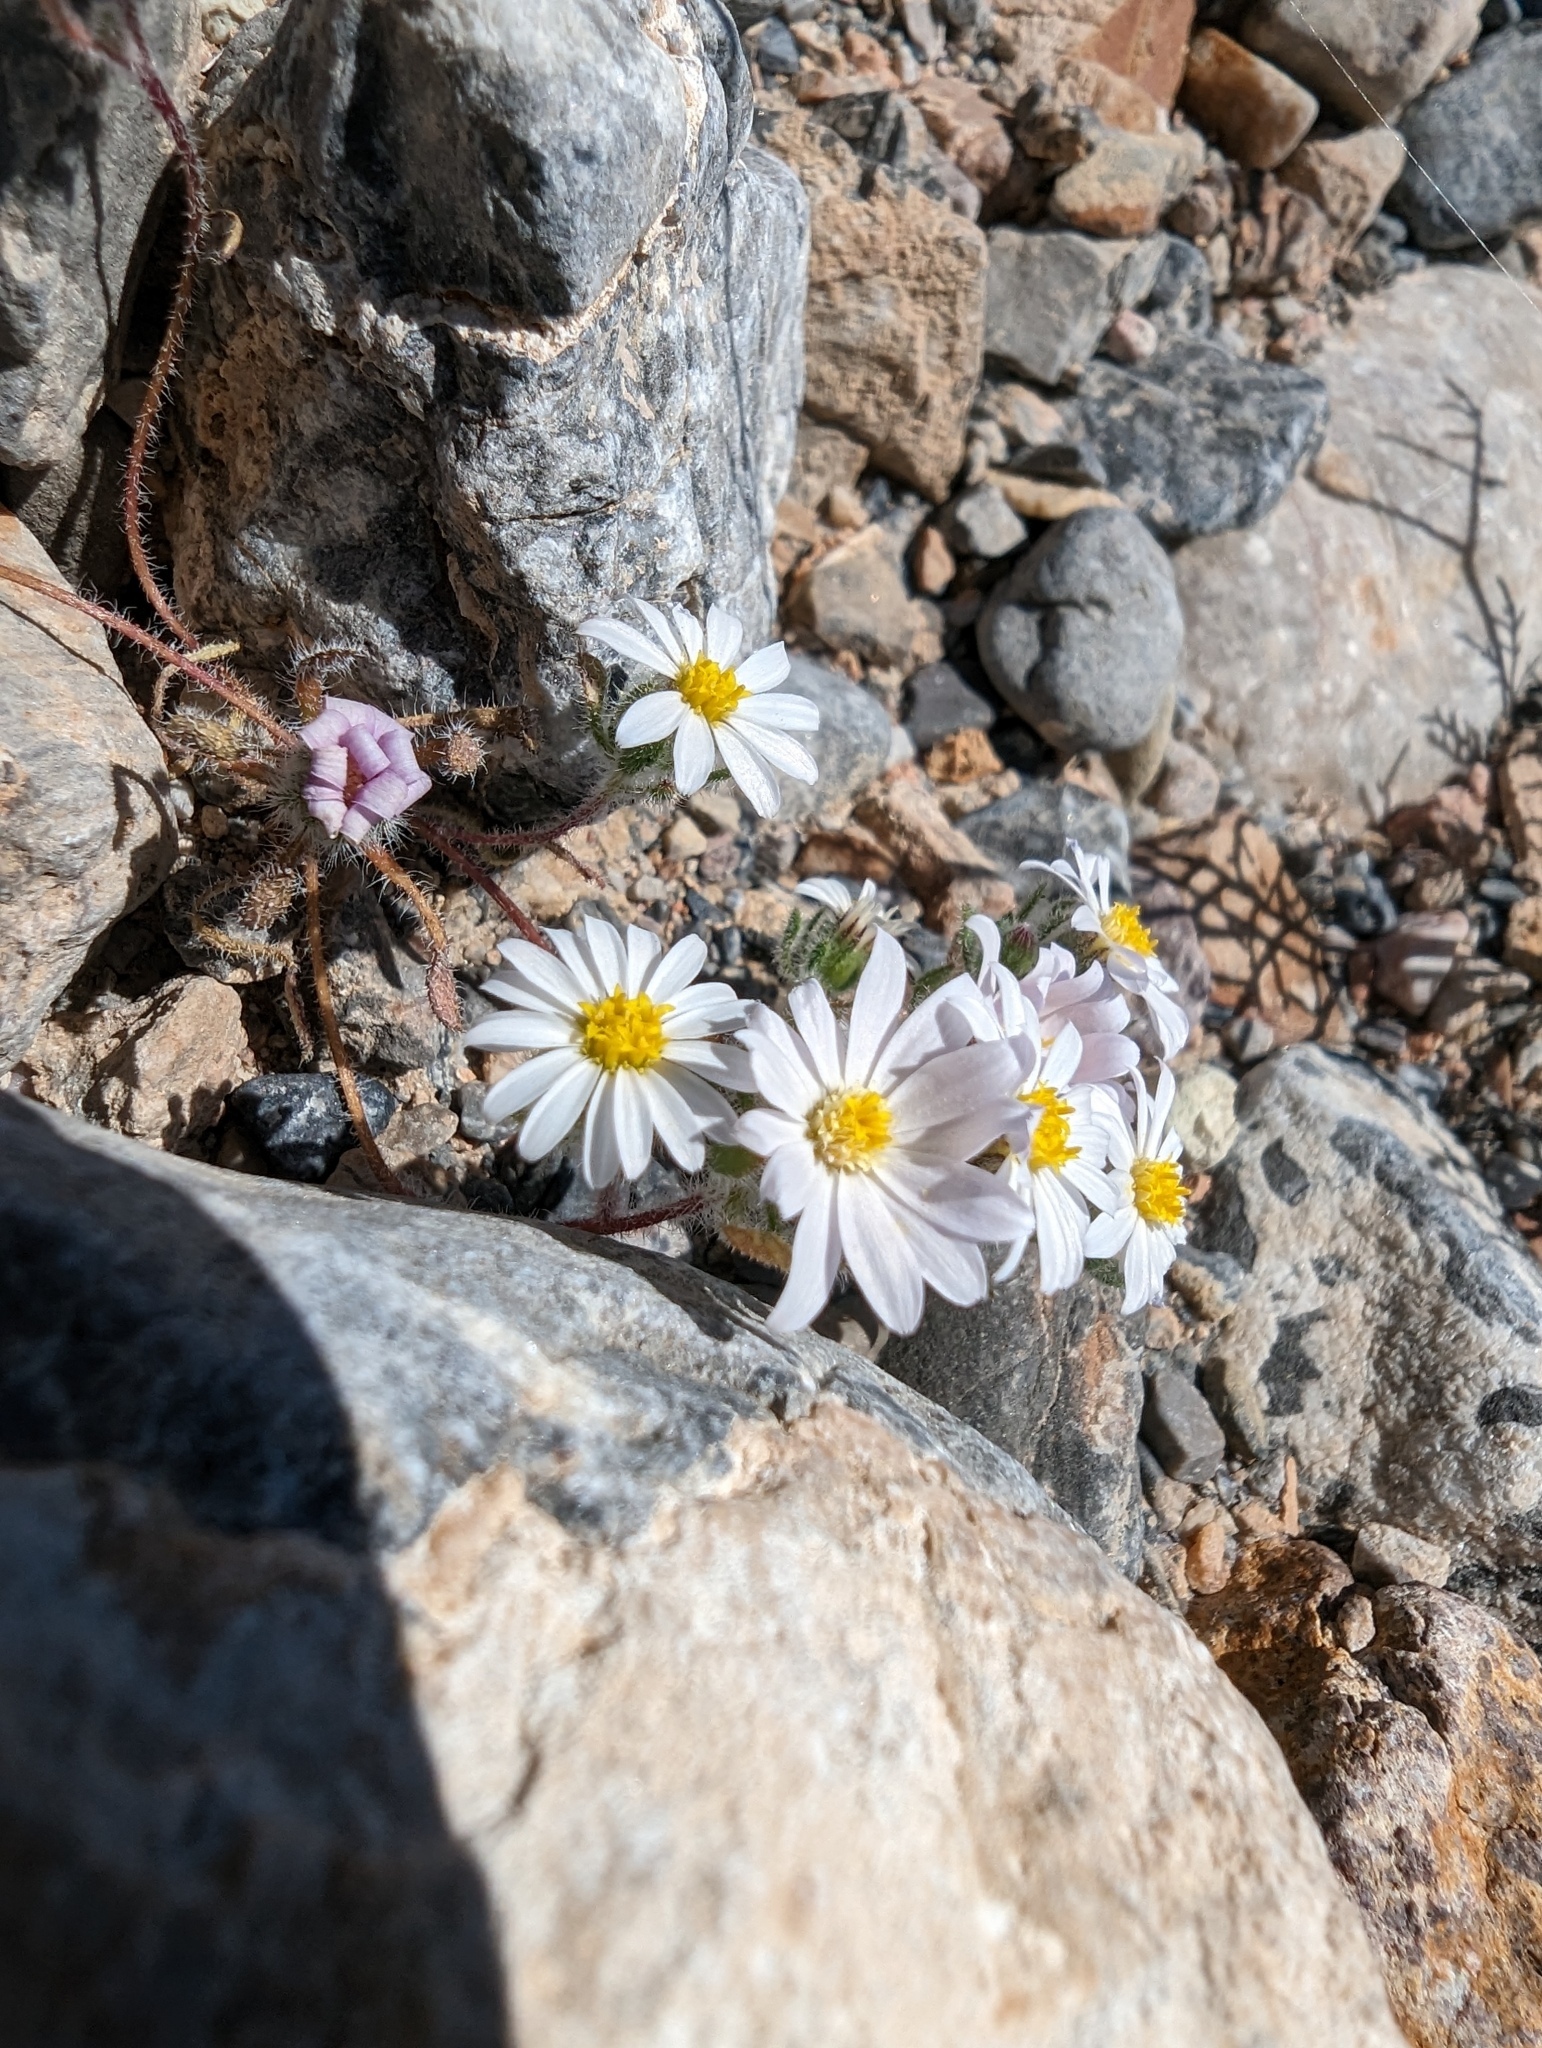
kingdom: Plantae
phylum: Tracheophyta
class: Magnoliopsida
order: Asterales
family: Asteraceae
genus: Monoptilon
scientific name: Monoptilon bellioides
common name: Bristly desertstar
